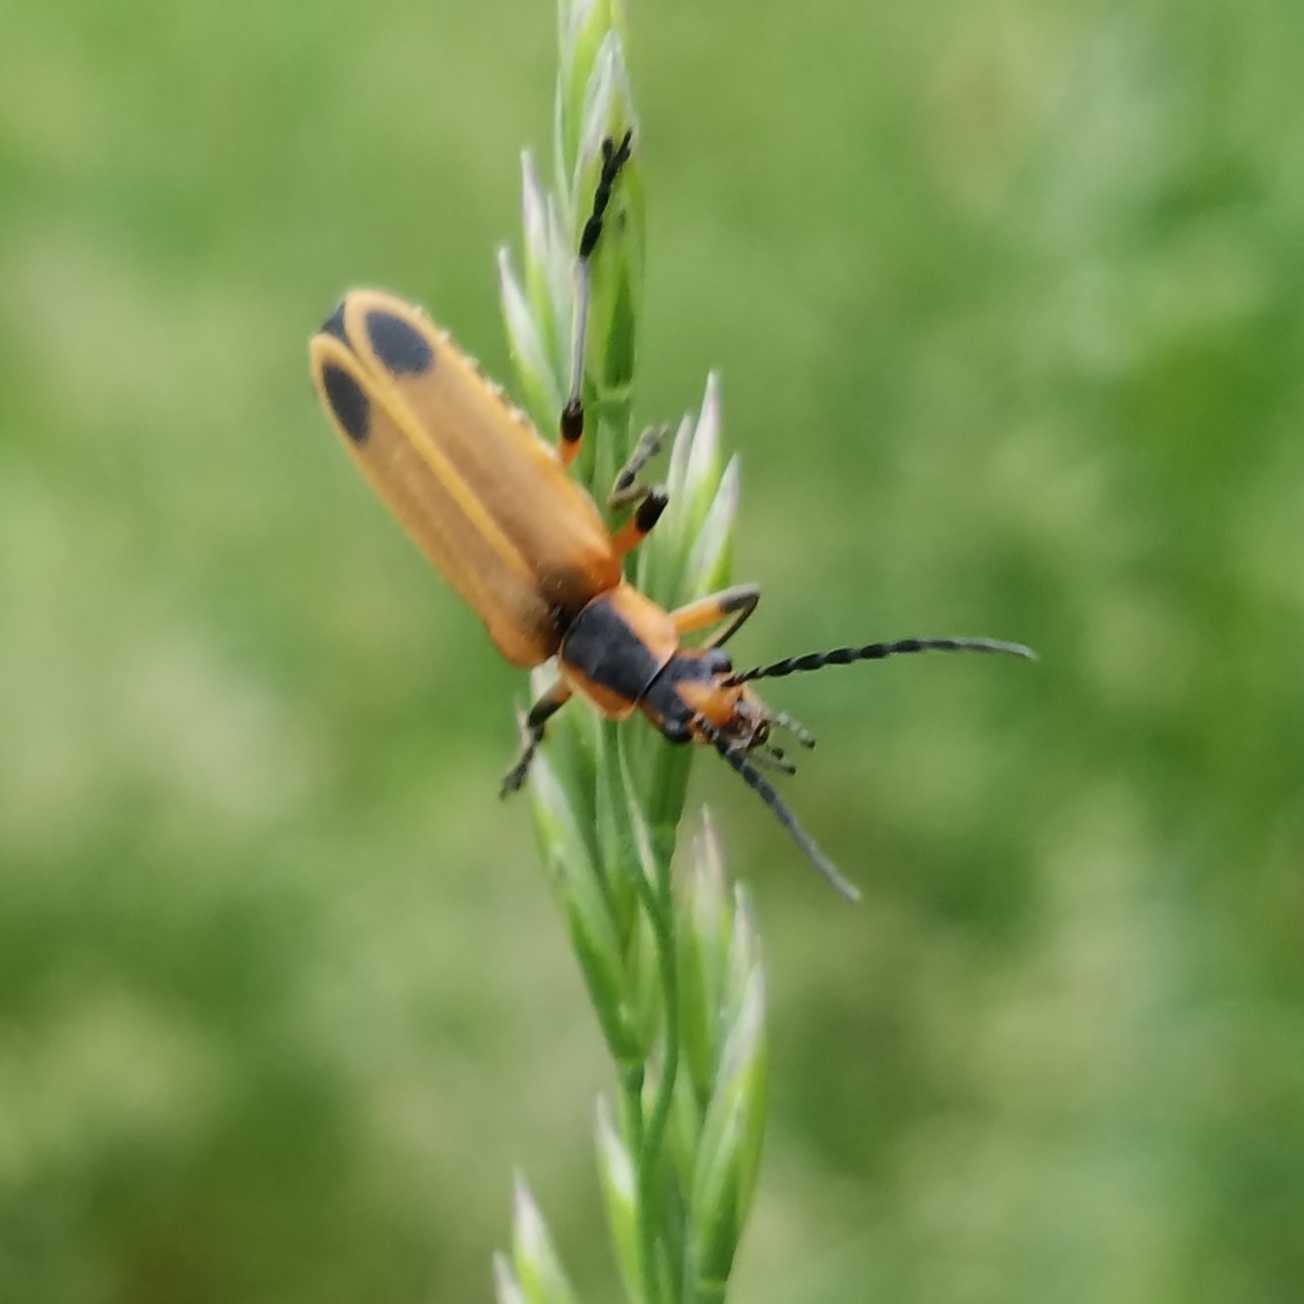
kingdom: Animalia
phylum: Arthropoda
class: Insecta
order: Coleoptera
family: Cantharidae
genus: Chauliognathus
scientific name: Chauliognathus marginatus
